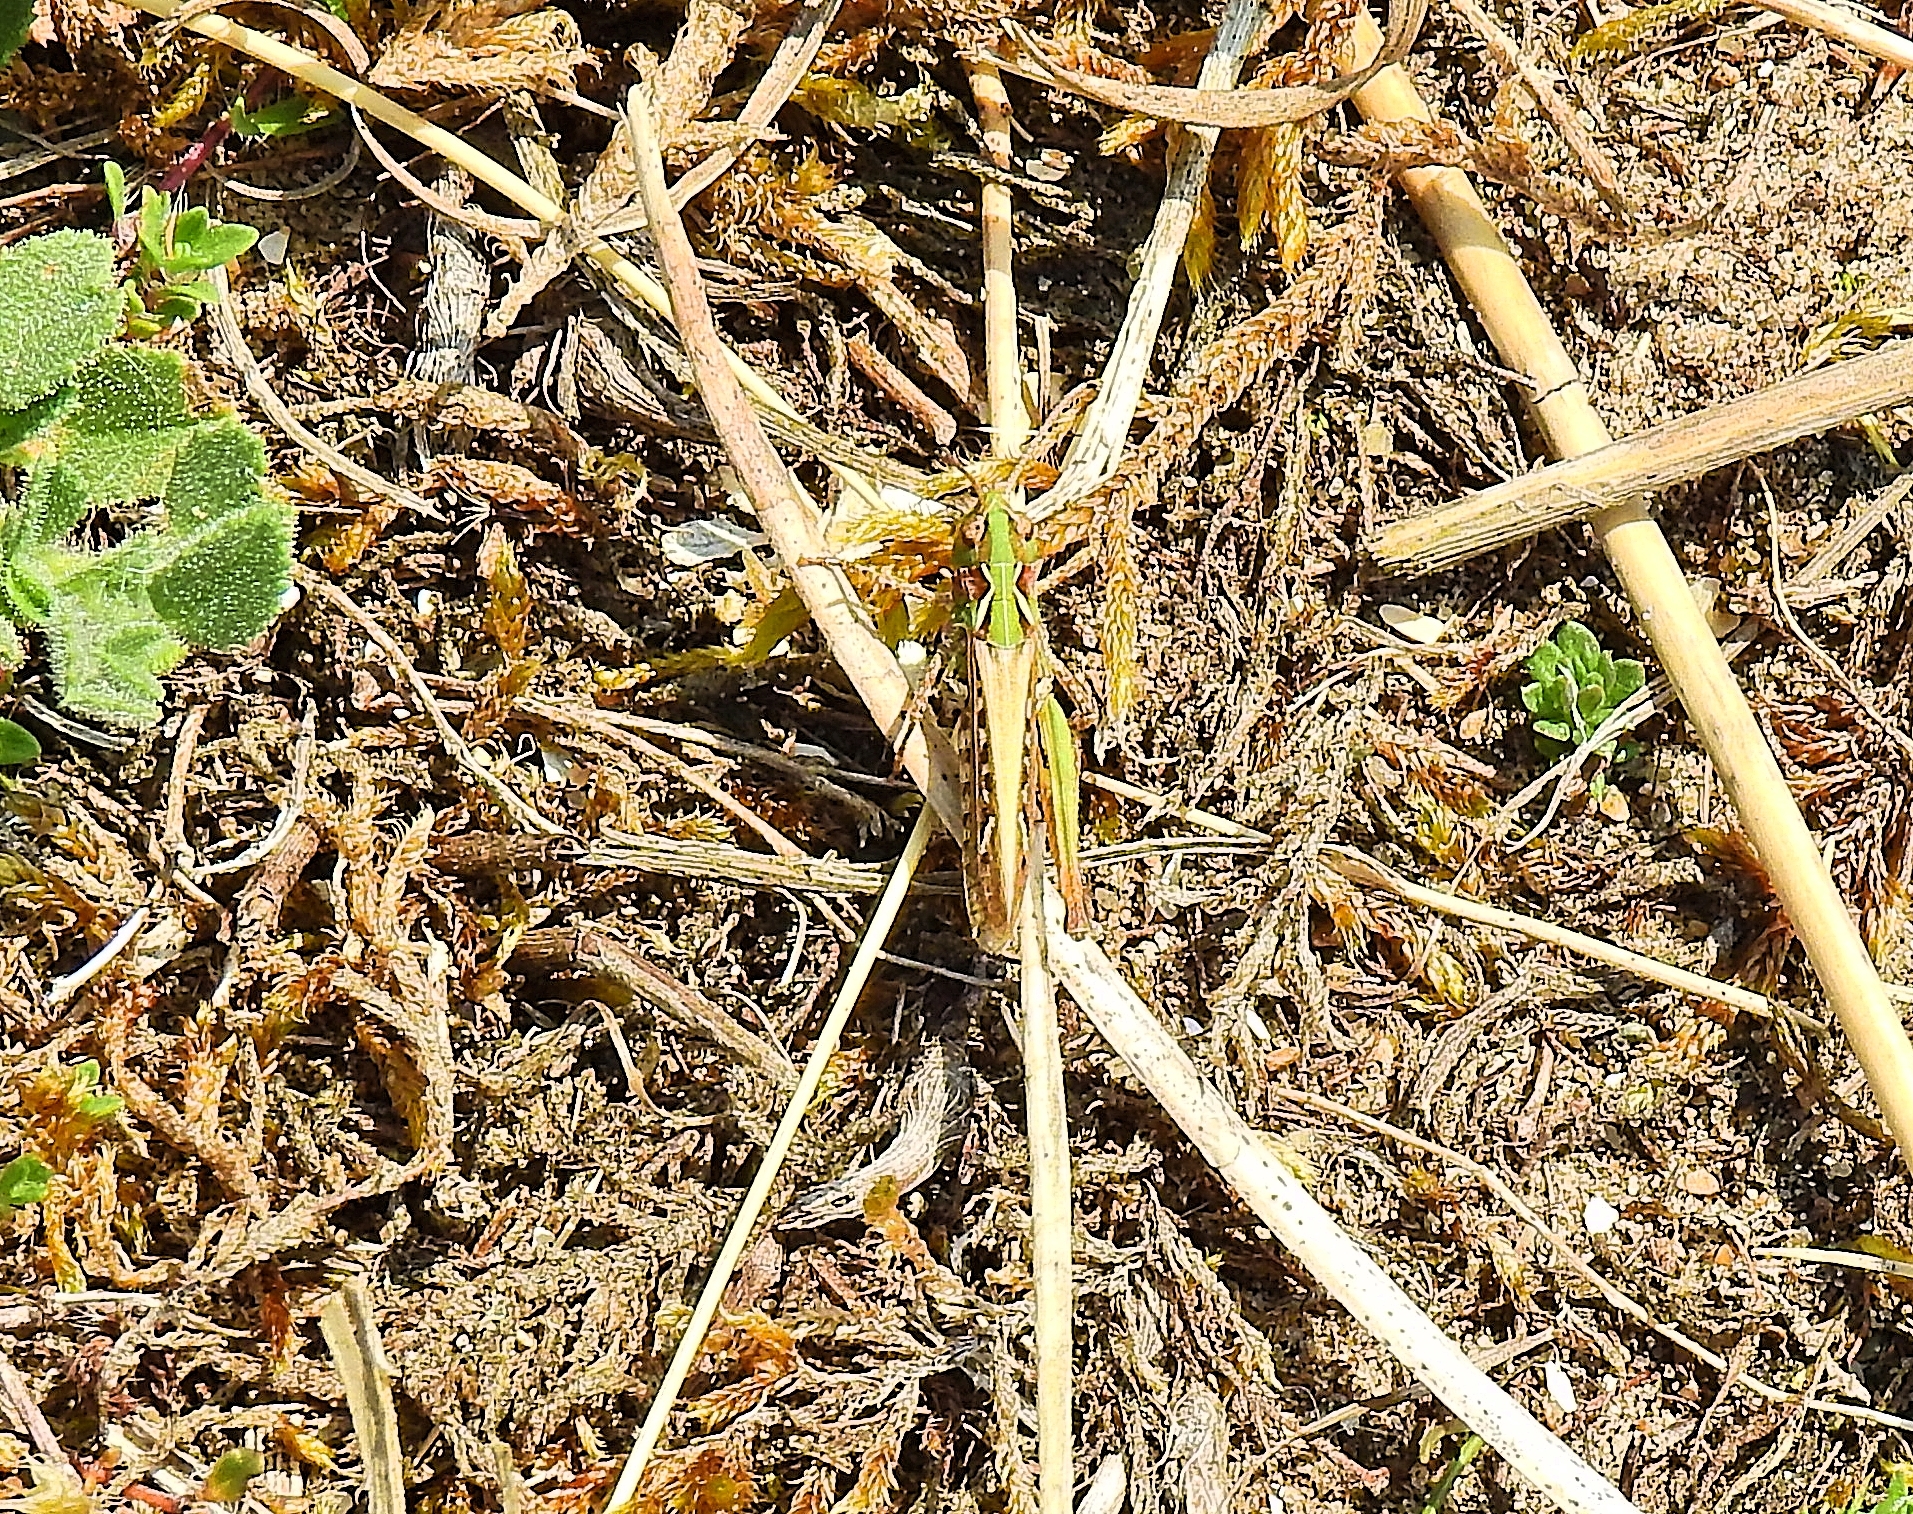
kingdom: Animalia
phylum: Arthropoda
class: Insecta
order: Orthoptera
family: Acrididae
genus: Myrmeleotettix
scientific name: Myrmeleotettix maculatus
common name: Mottled grasshopper
